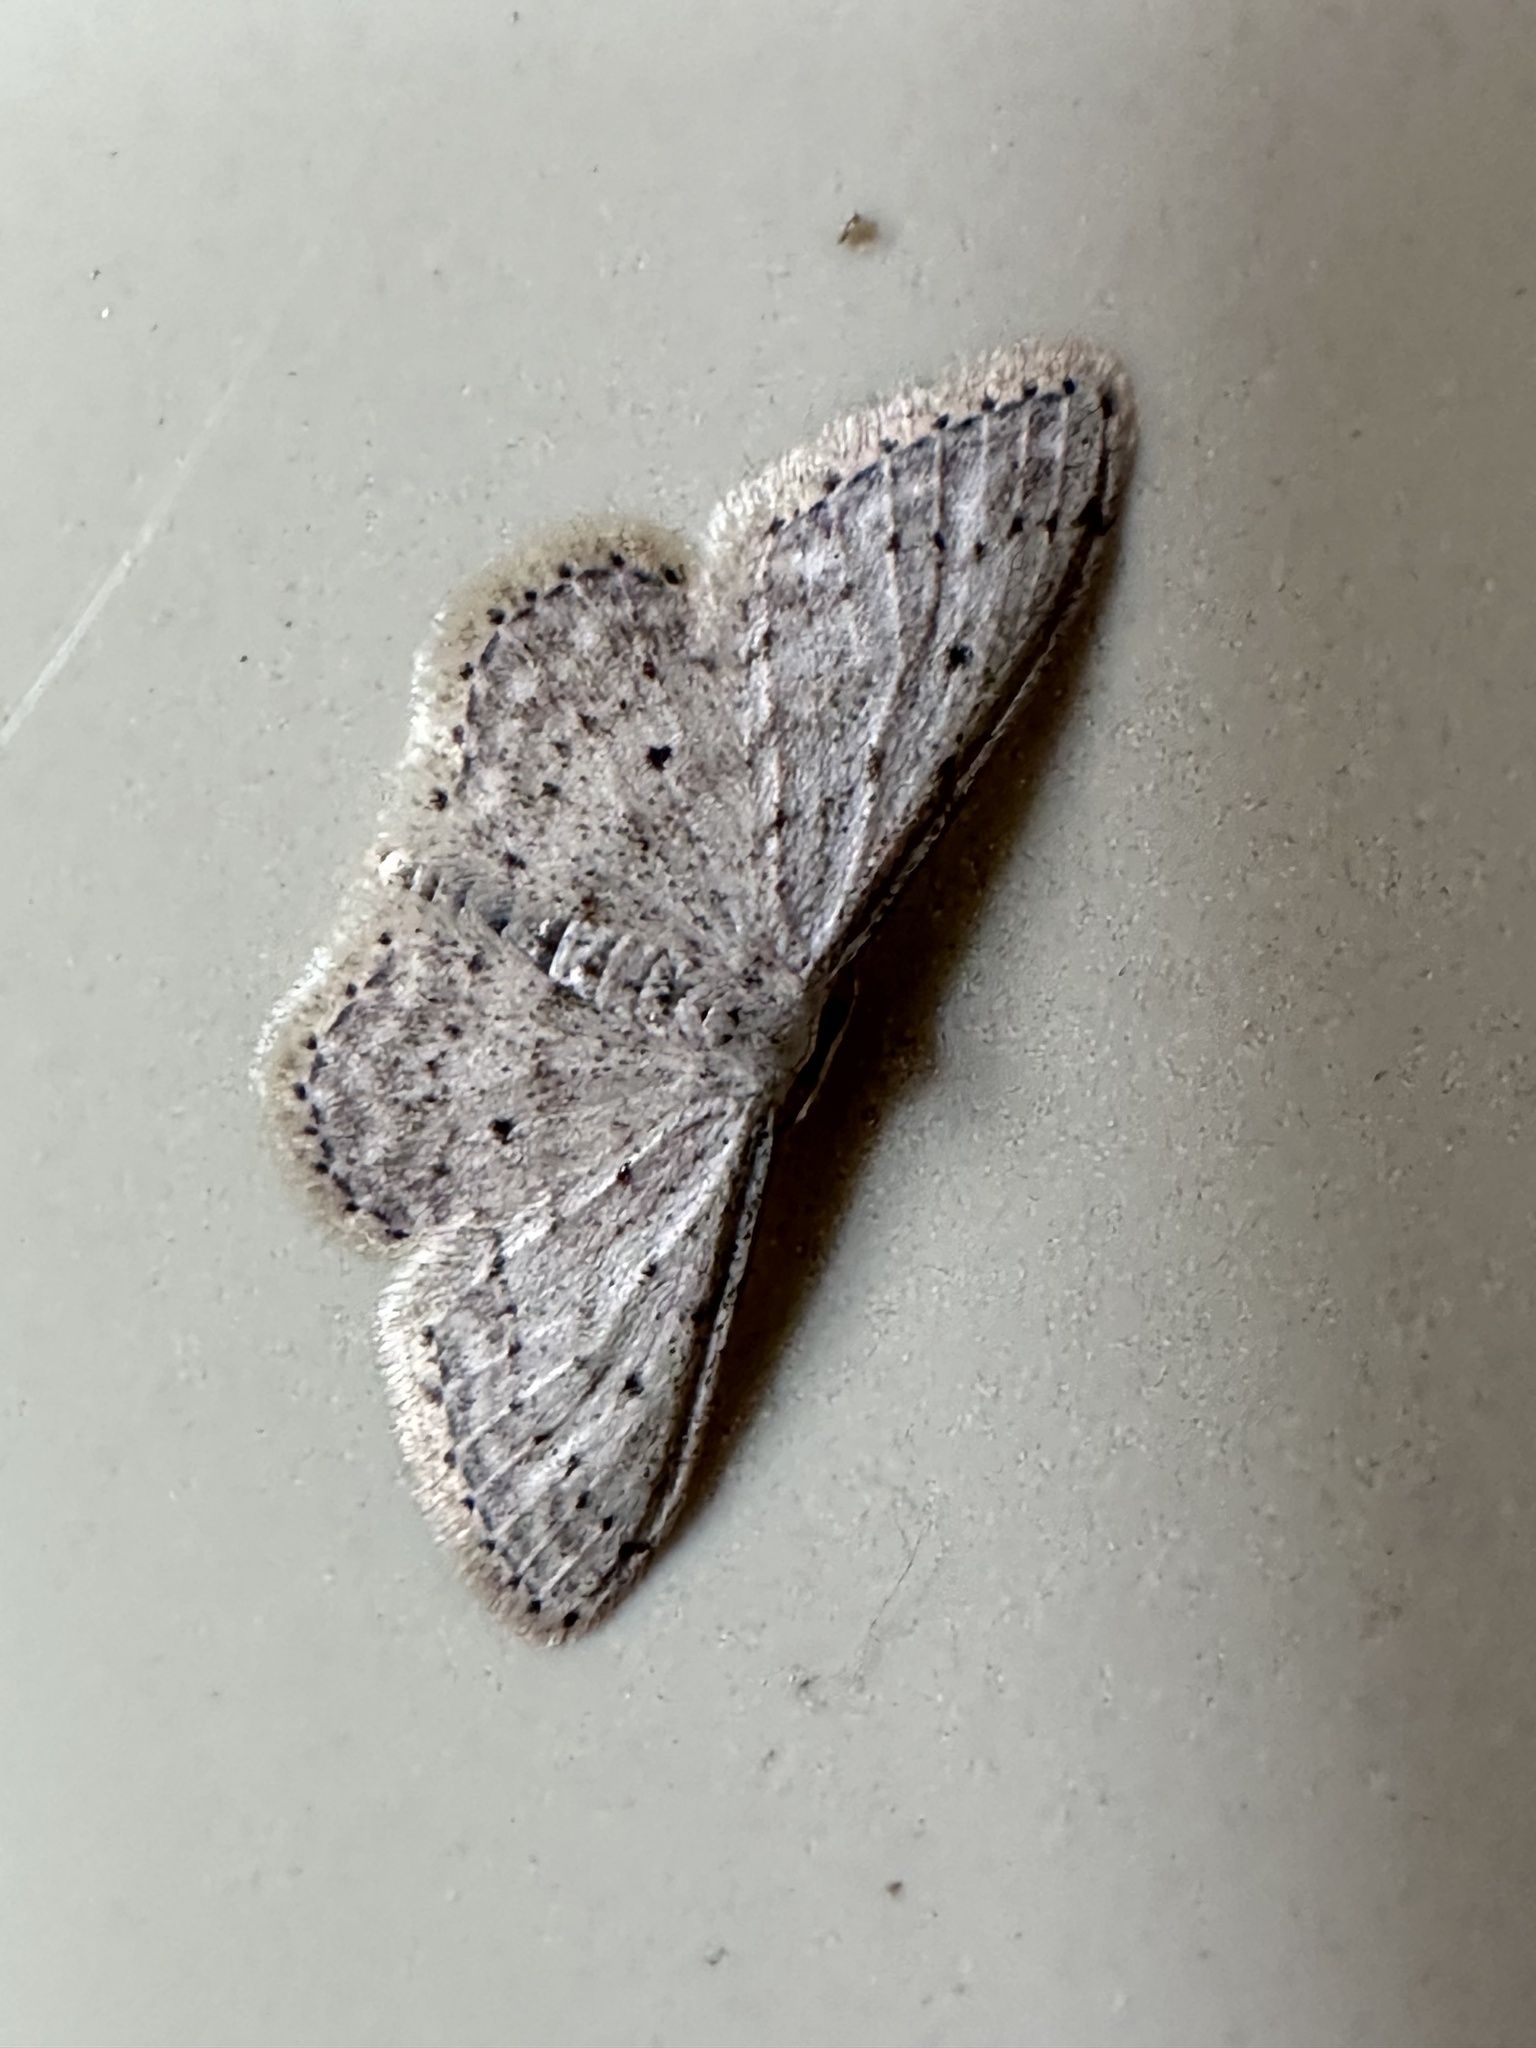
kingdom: Animalia
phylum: Arthropoda
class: Insecta
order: Lepidoptera
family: Geometridae
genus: Idaea
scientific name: Idaea seriata
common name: Small dusty wave
